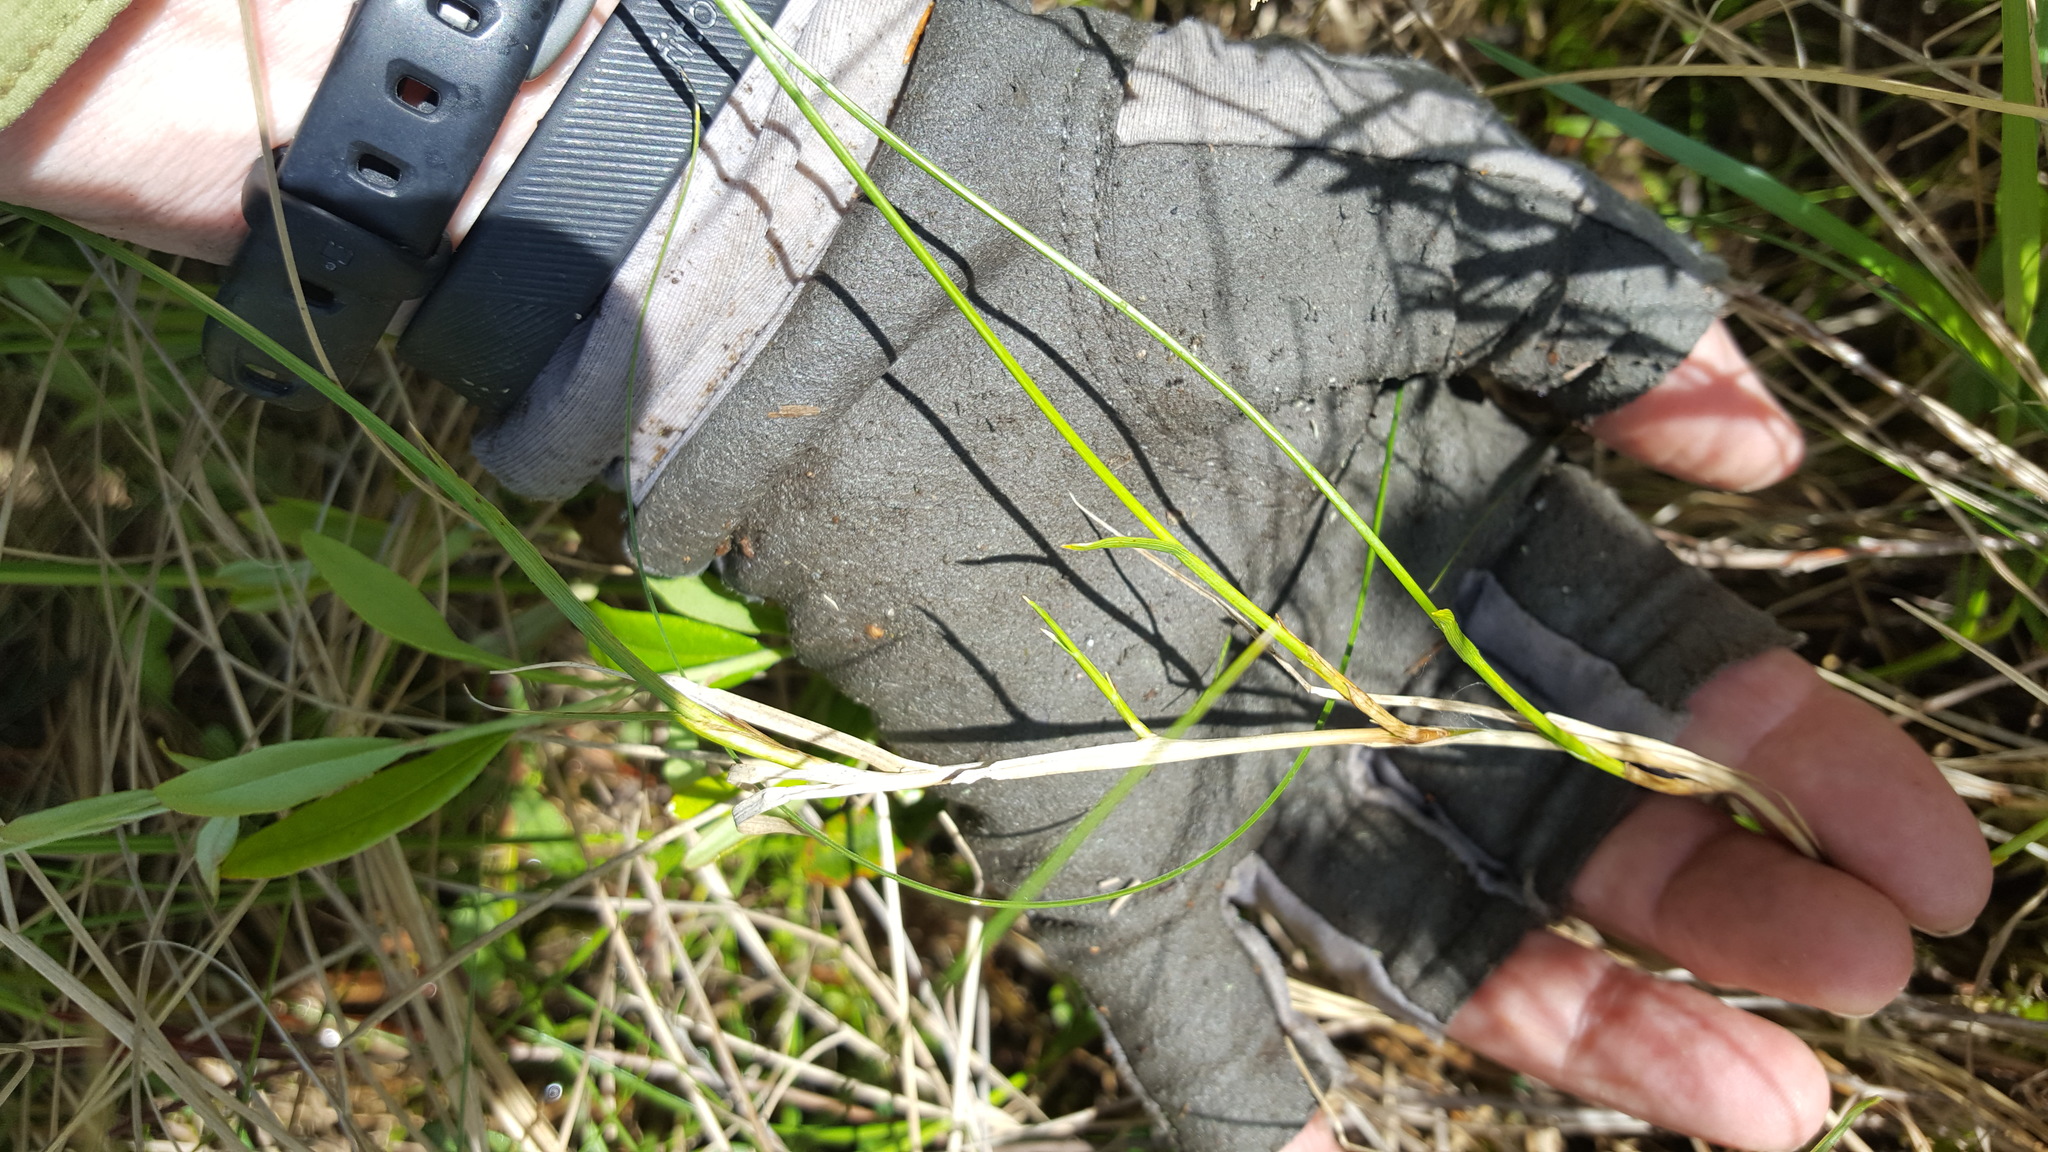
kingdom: Plantae
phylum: Tracheophyta
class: Liliopsida
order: Poales
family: Cyperaceae
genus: Carex
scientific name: Carex chordorrhiza
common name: String sedge
